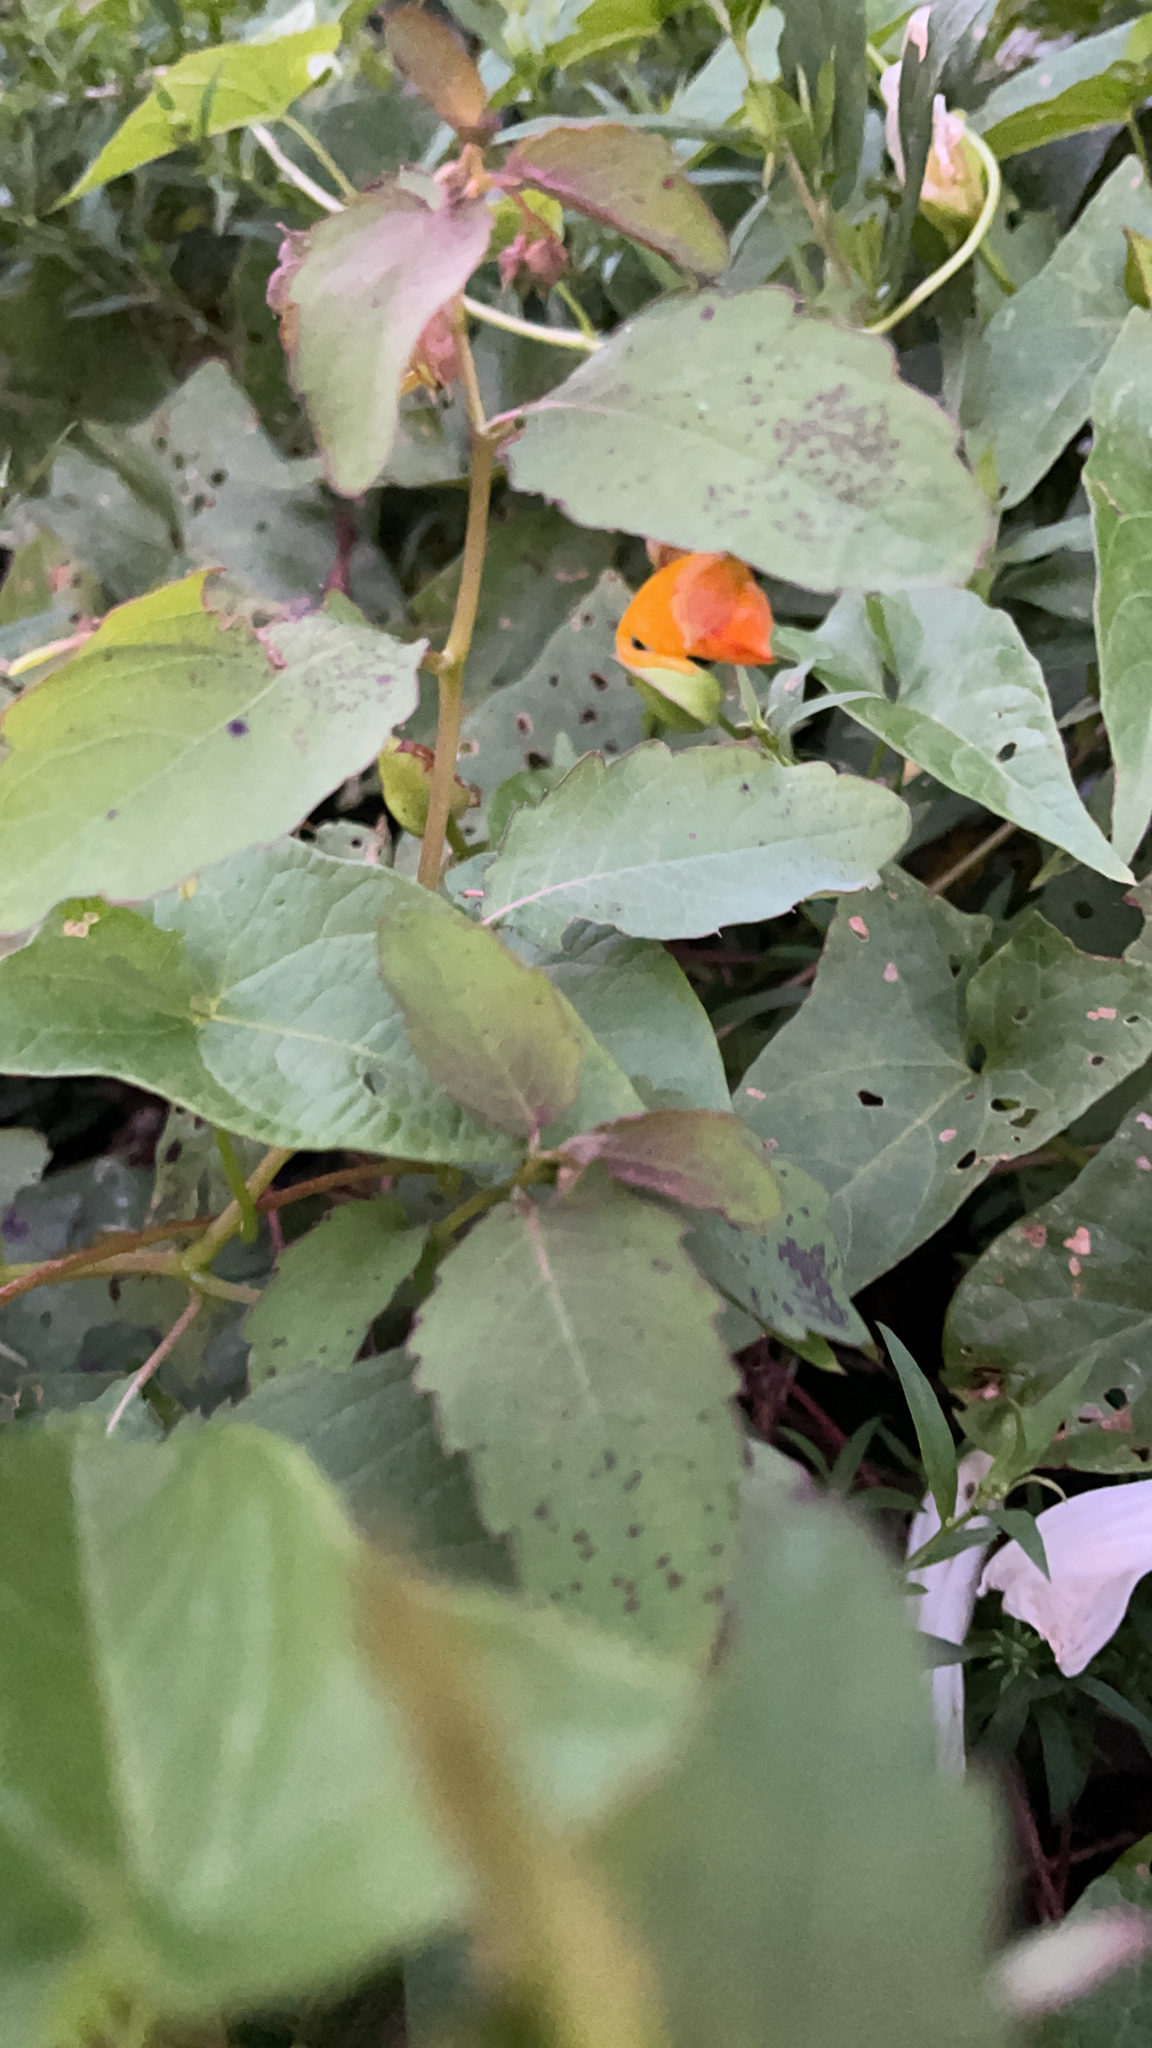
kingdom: Plantae
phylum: Tracheophyta
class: Magnoliopsida
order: Ericales
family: Balsaminaceae
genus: Impatiens
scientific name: Impatiens capensis
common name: Orange balsam
